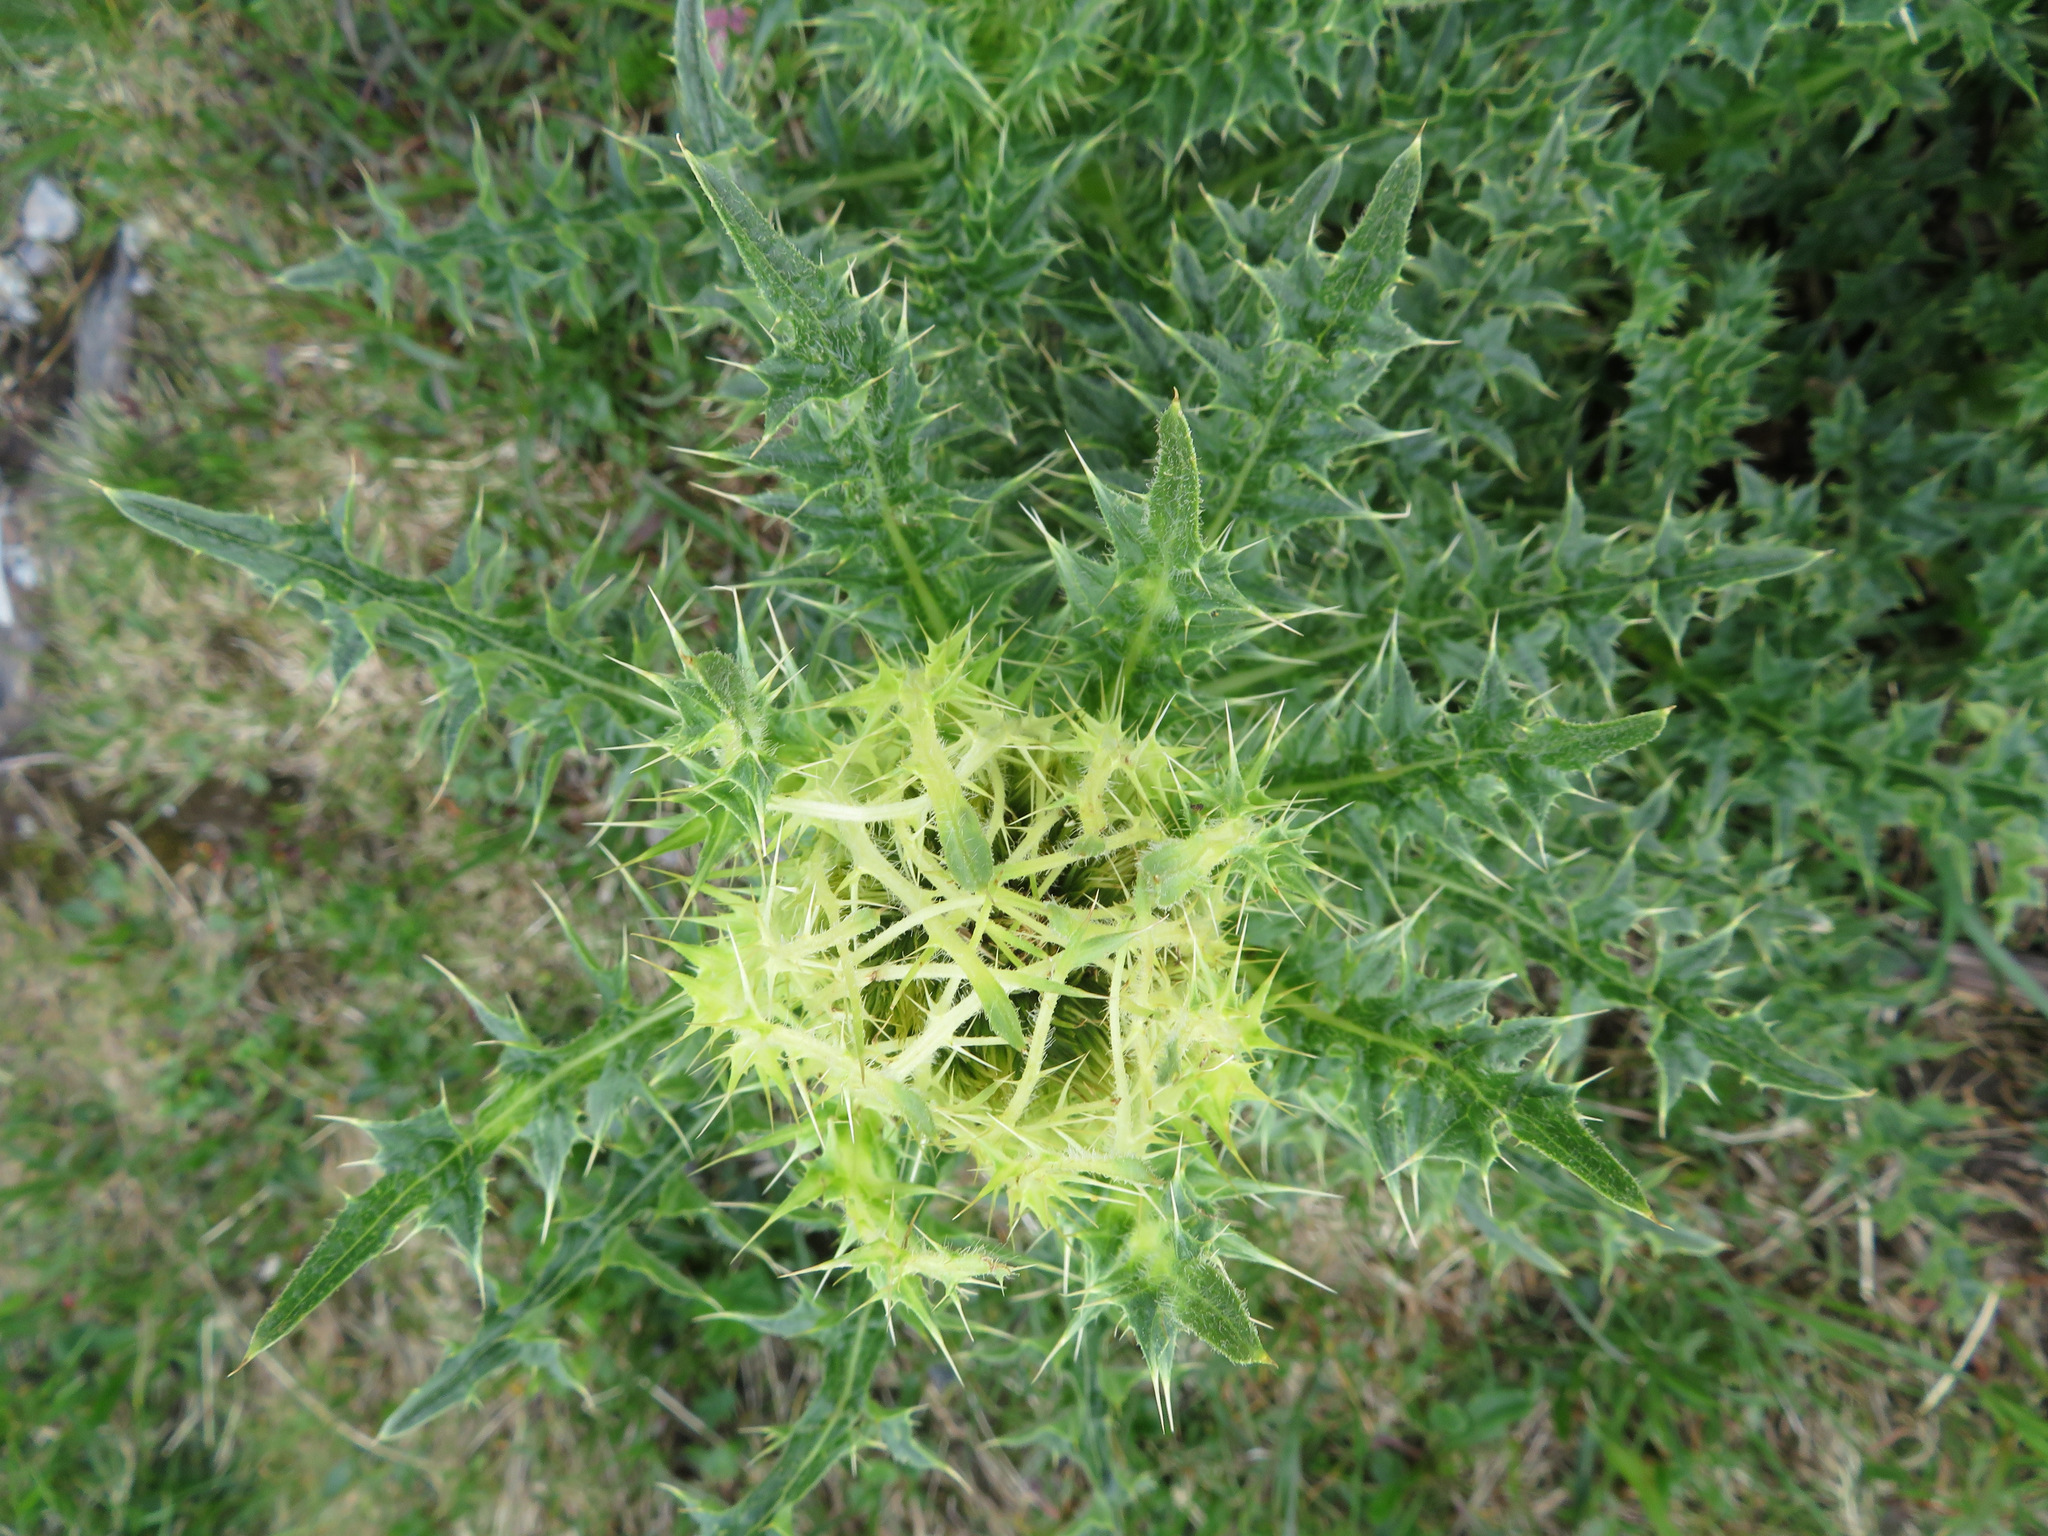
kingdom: Plantae
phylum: Tracheophyta
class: Magnoliopsida
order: Asterales
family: Asteraceae
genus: Cirsium
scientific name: Cirsium spinosissimum
